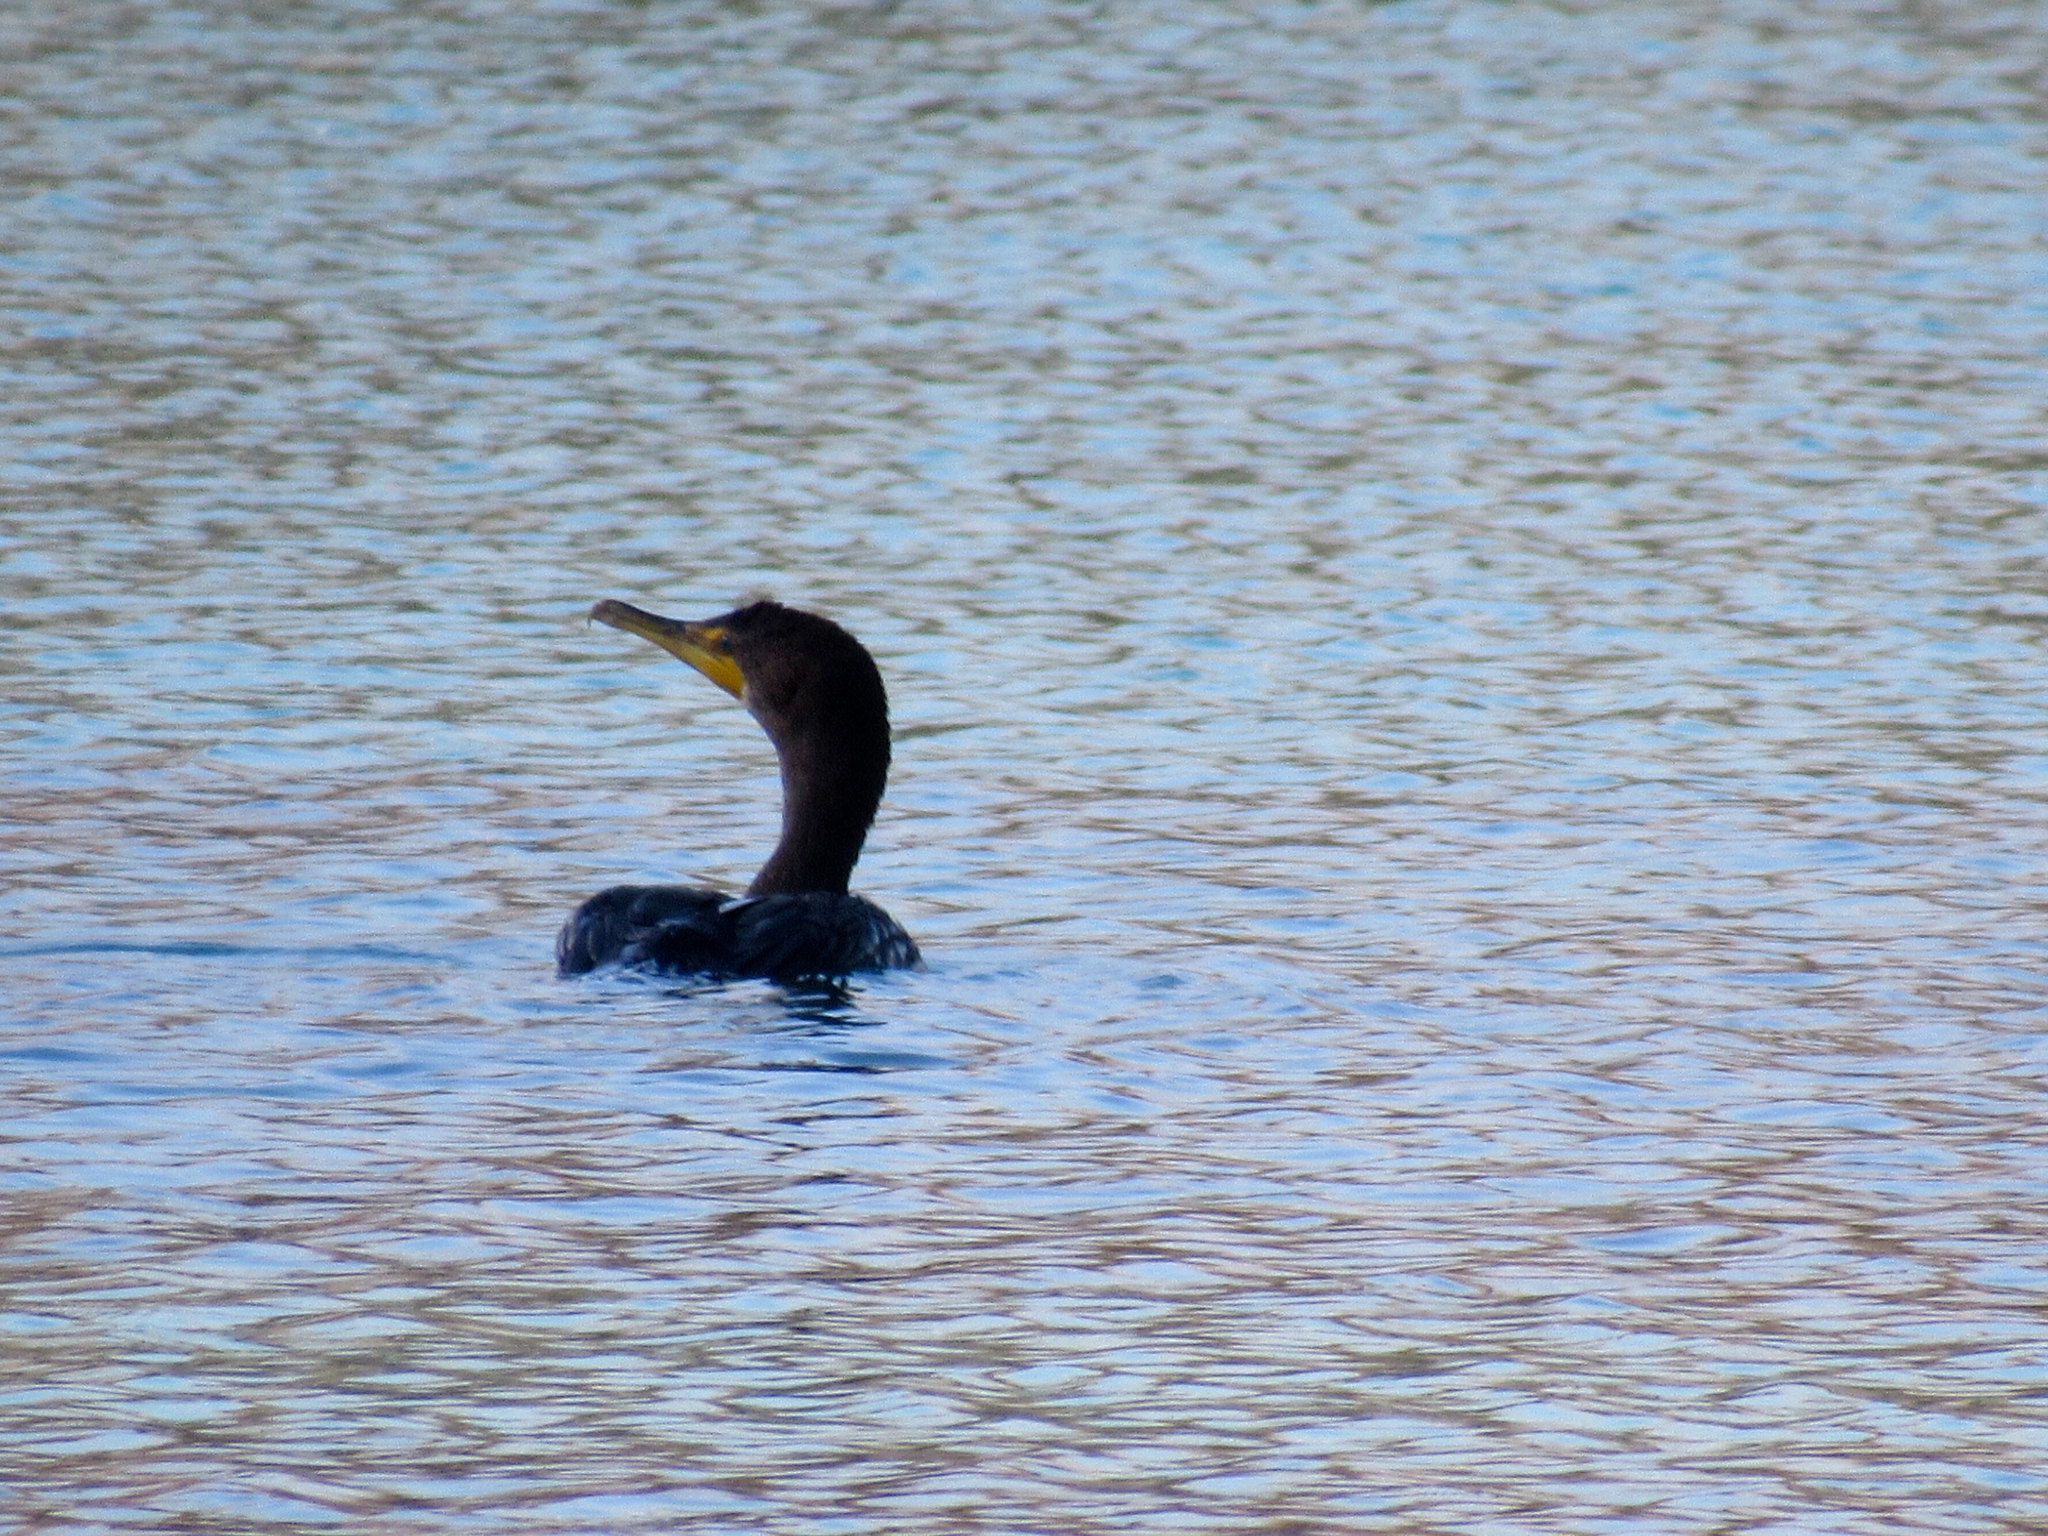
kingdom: Animalia
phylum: Chordata
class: Aves
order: Suliformes
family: Phalacrocoracidae
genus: Phalacrocorax
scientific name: Phalacrocorax auritus
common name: Double-crested cormorant
